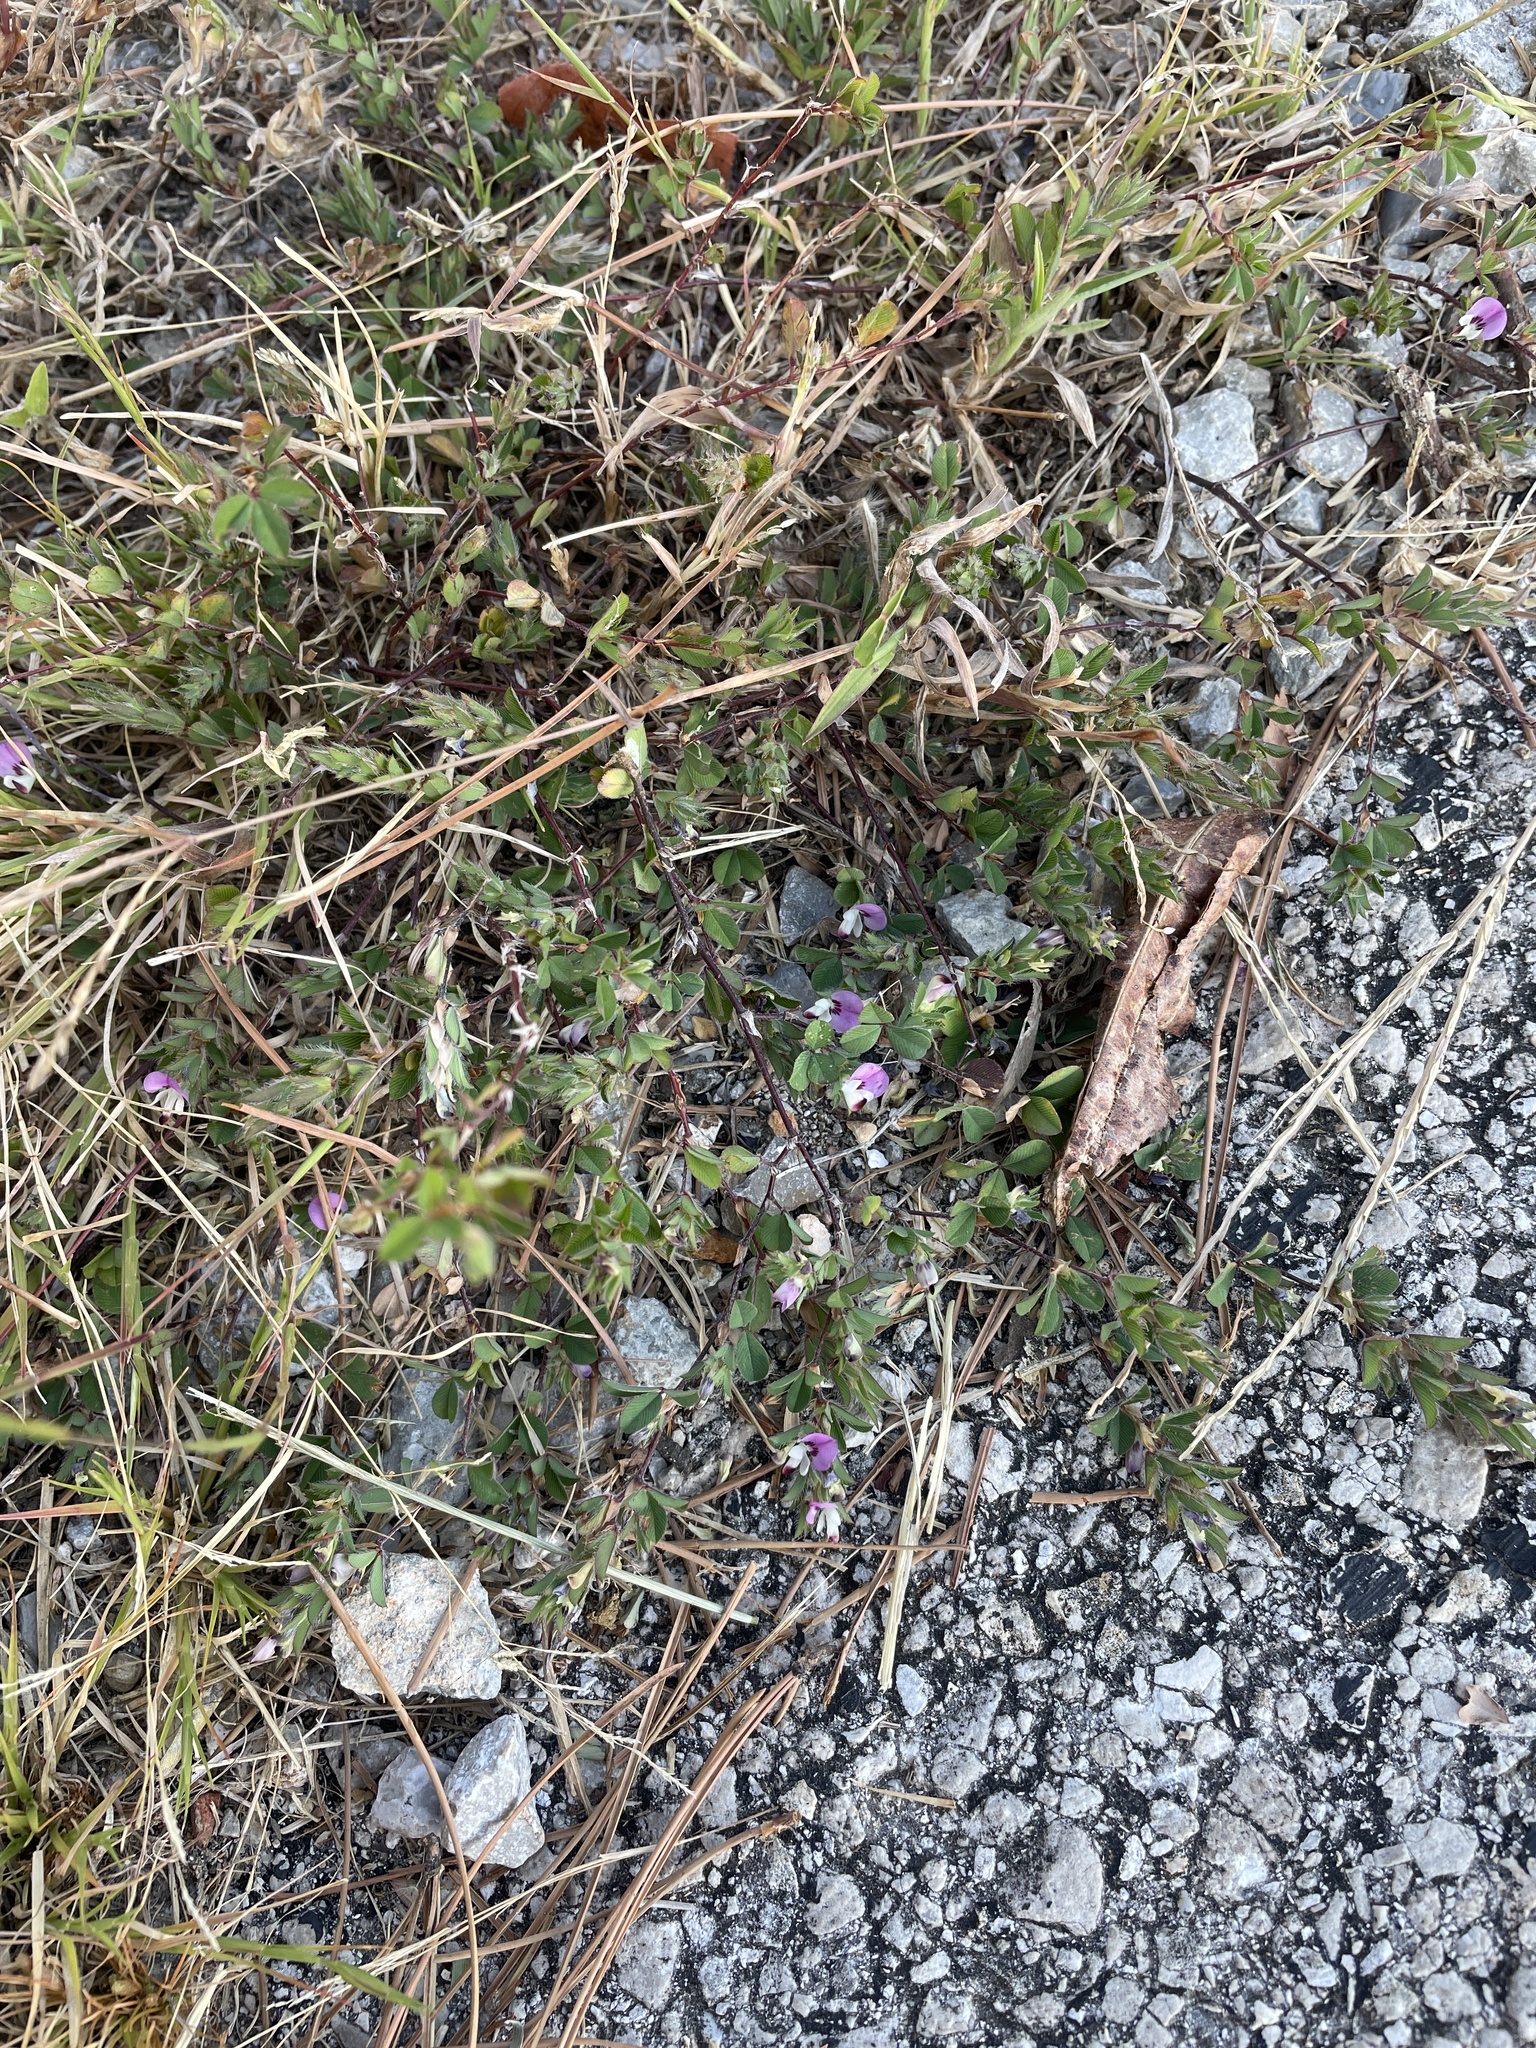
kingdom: Plantae
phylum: Tracheophyta
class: Magnoliopsida
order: Fabales
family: Fabaceae
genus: Kummerowia
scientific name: Kummerowia stipulacea
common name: Korean clover
